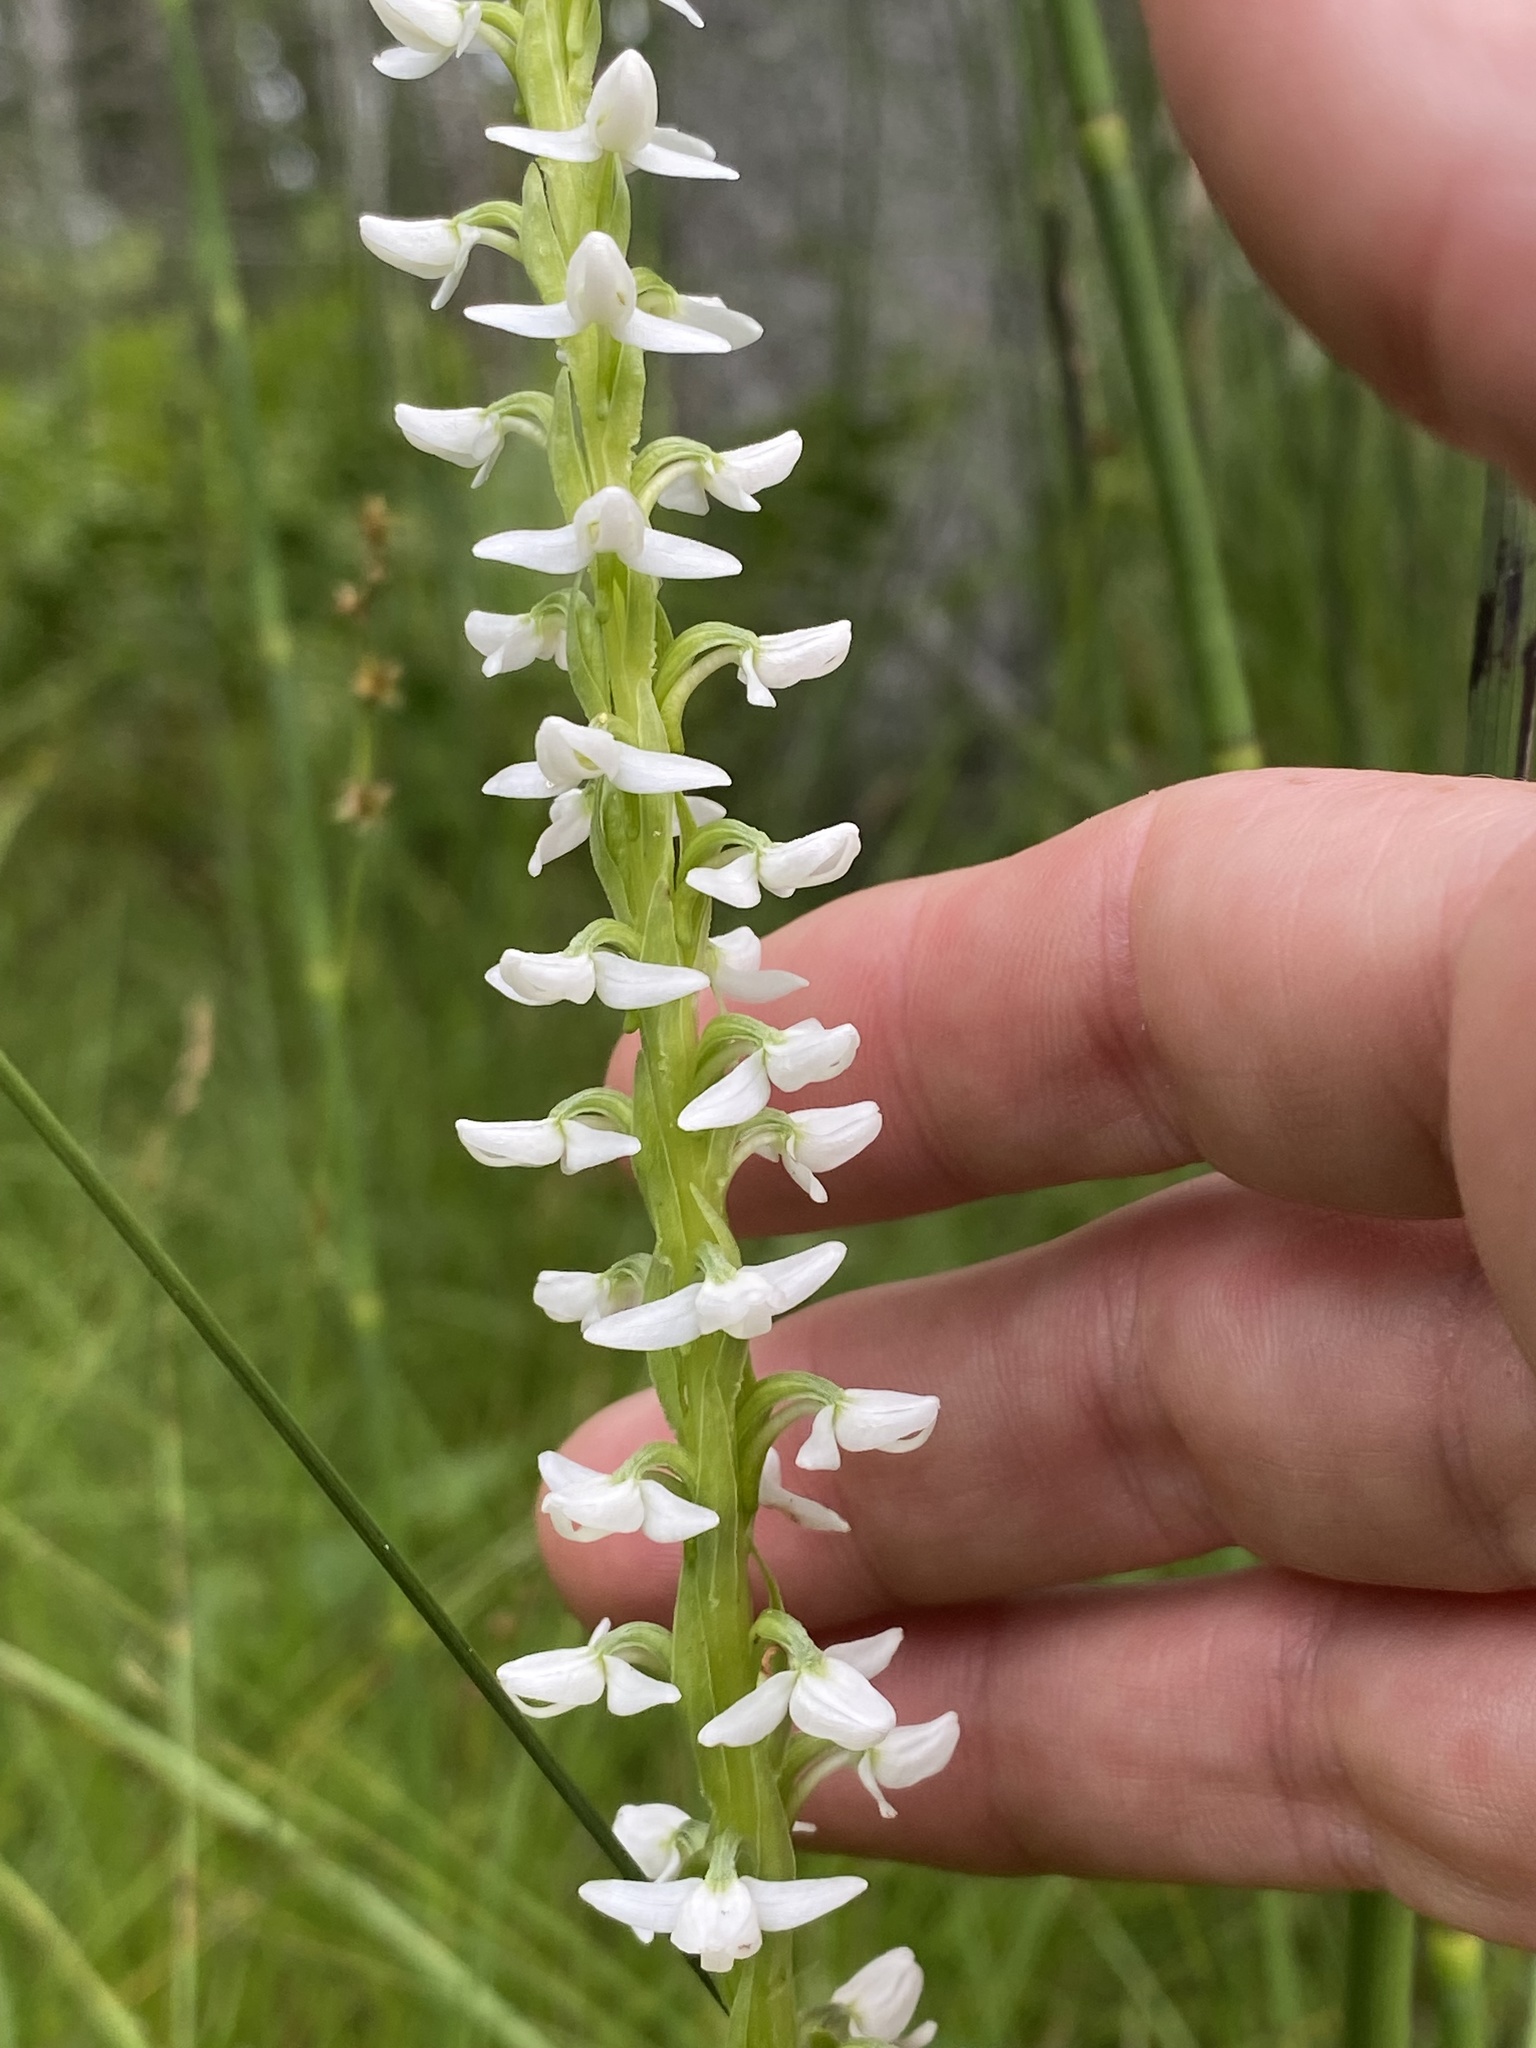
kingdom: Plantae
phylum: Tracheophyta
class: Liliopsida
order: Asparagales
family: Orchidaceae
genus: Platanthera
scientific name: Platanthera dilatata
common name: Bog candles
